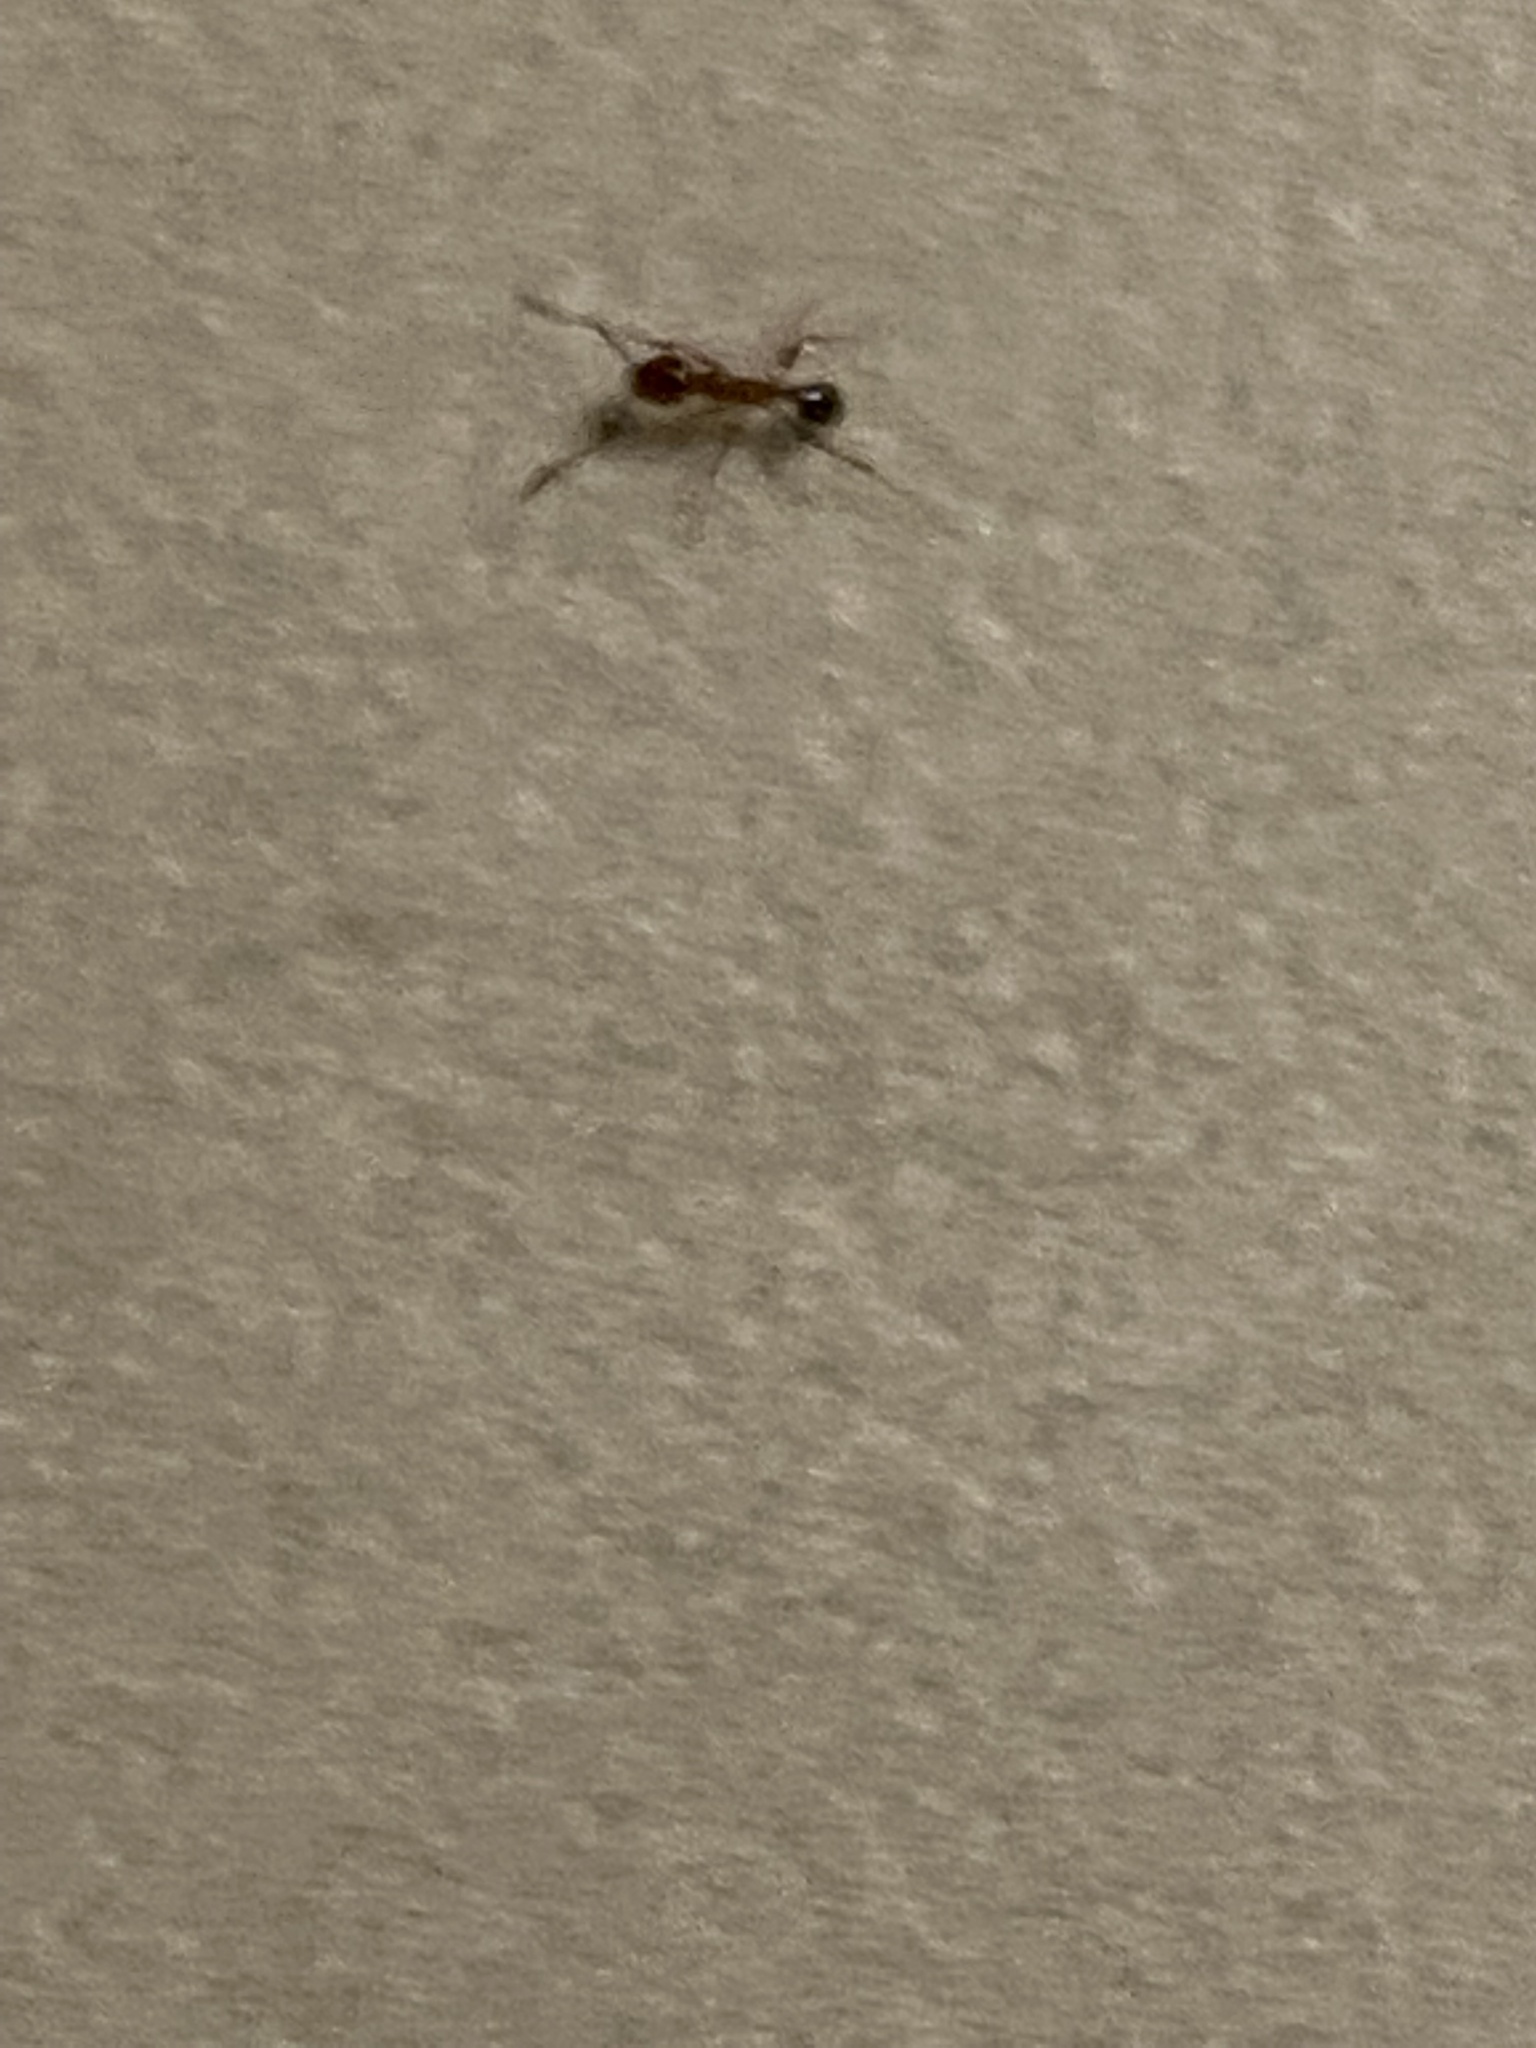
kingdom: Animalia
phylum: Arthropoda
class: Insecta
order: Hymenoptera
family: Formicidae
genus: Pheidole
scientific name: Pheidole dentata
